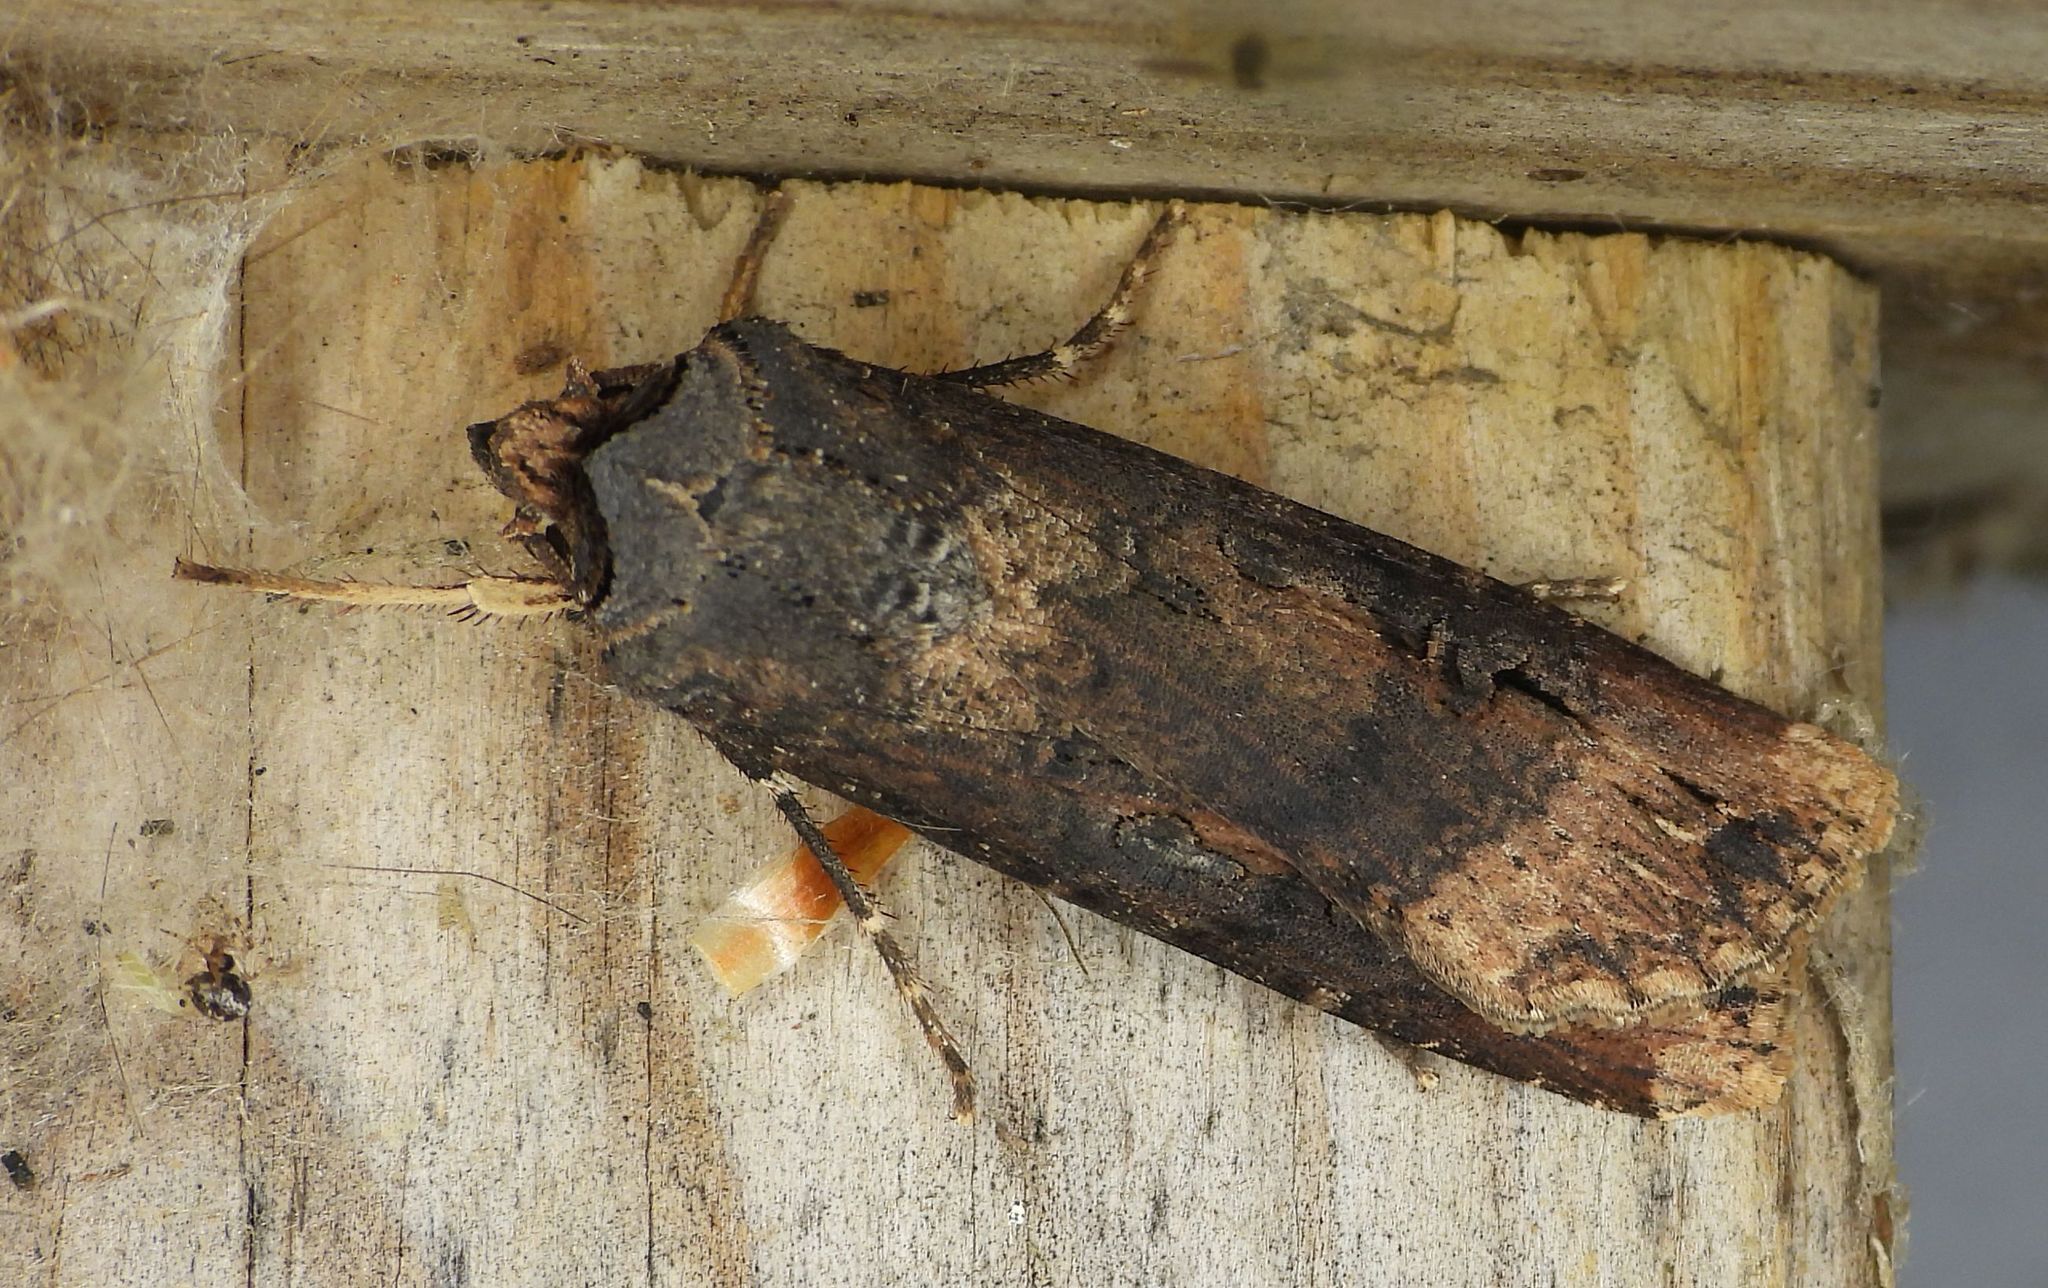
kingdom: Animalia
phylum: Arthropoda
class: Insecta
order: Lepidoptera
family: Noctuidae
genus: Agrotis
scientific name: Agrotis ipsilon
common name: Dark sword-grass
